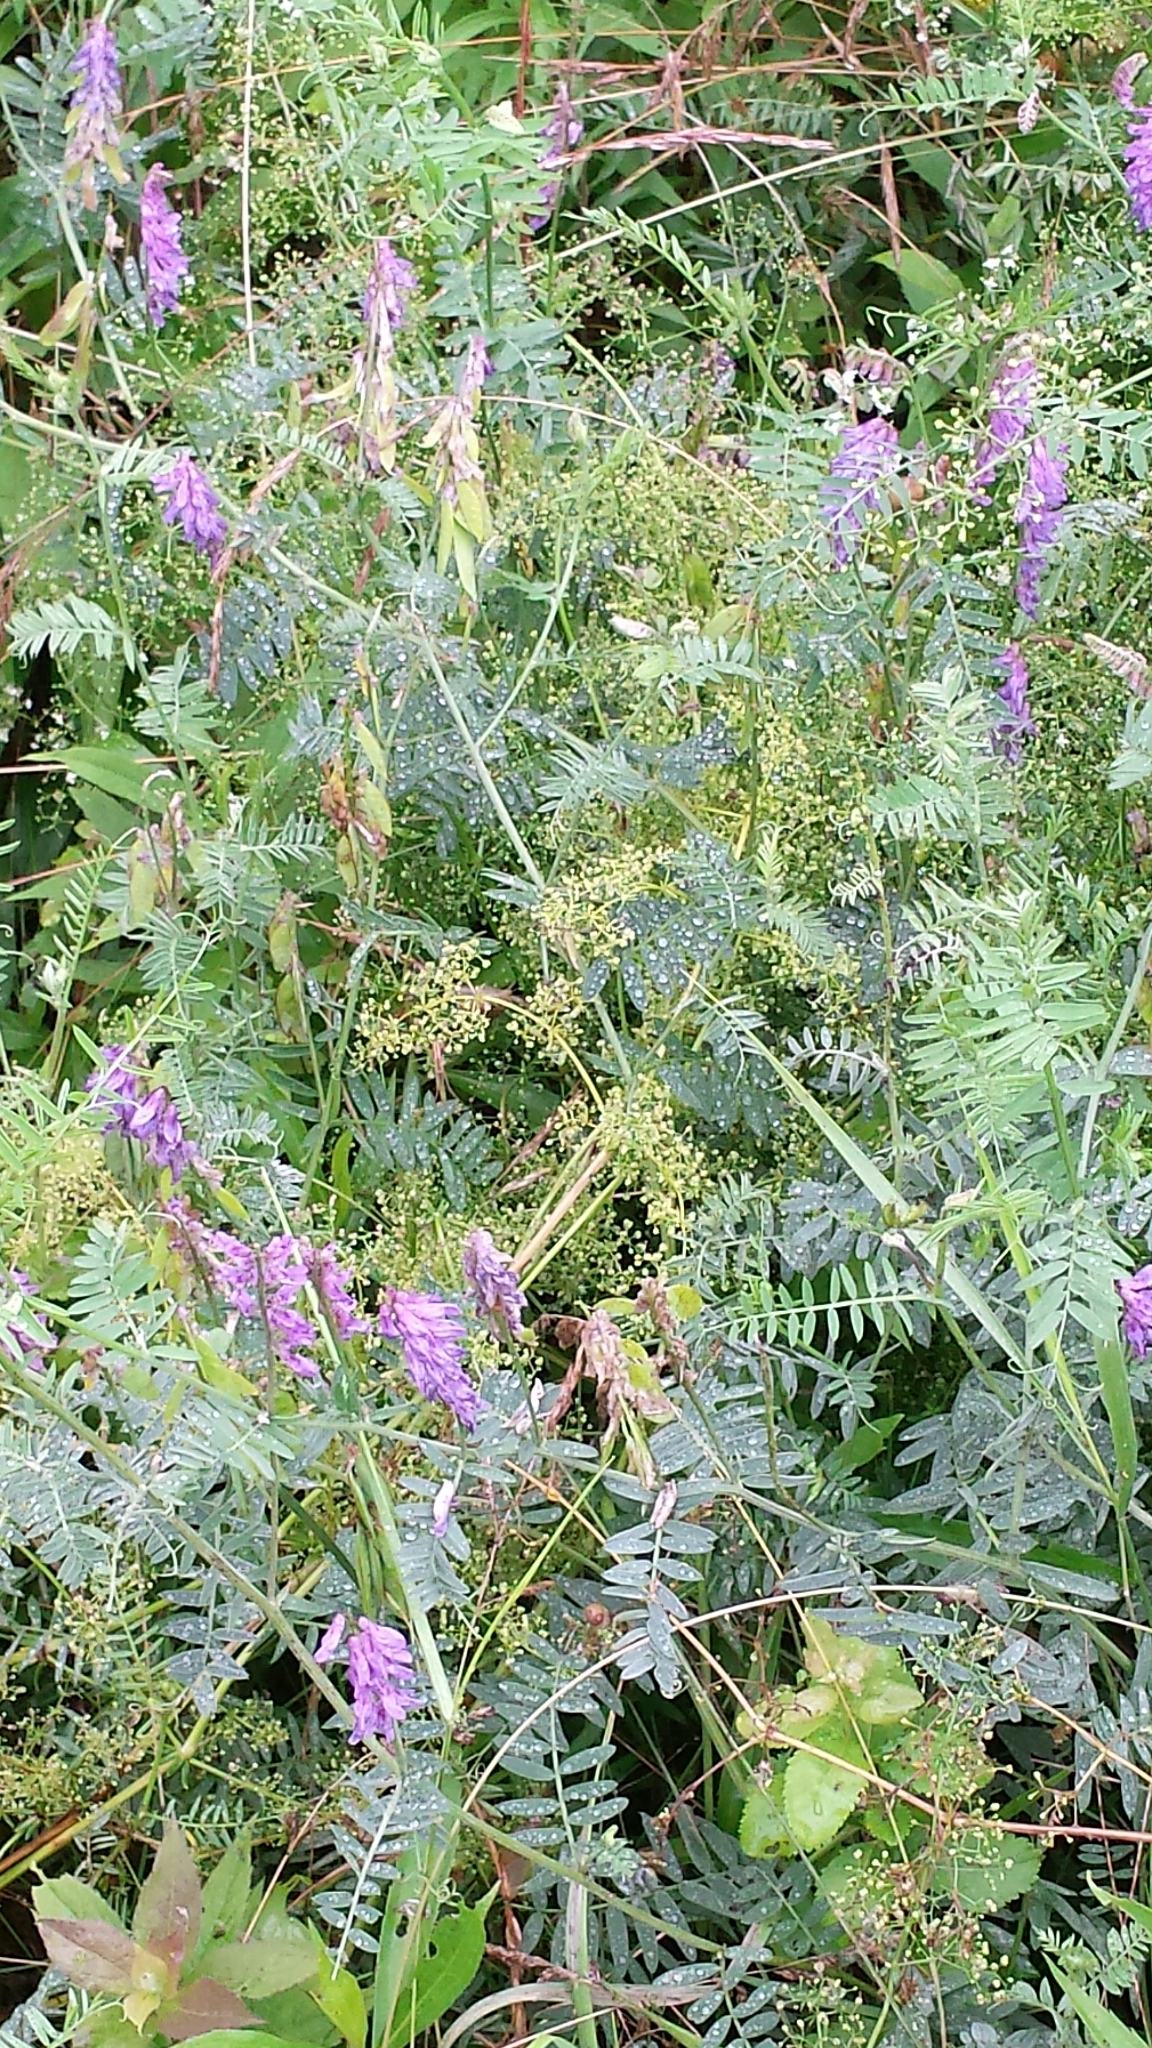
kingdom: Plantae
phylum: Tracheophyta
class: Magnoliopsida
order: Fabales
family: Fabaceae
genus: Vicia
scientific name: Vicia cracca
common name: Bird vetch
